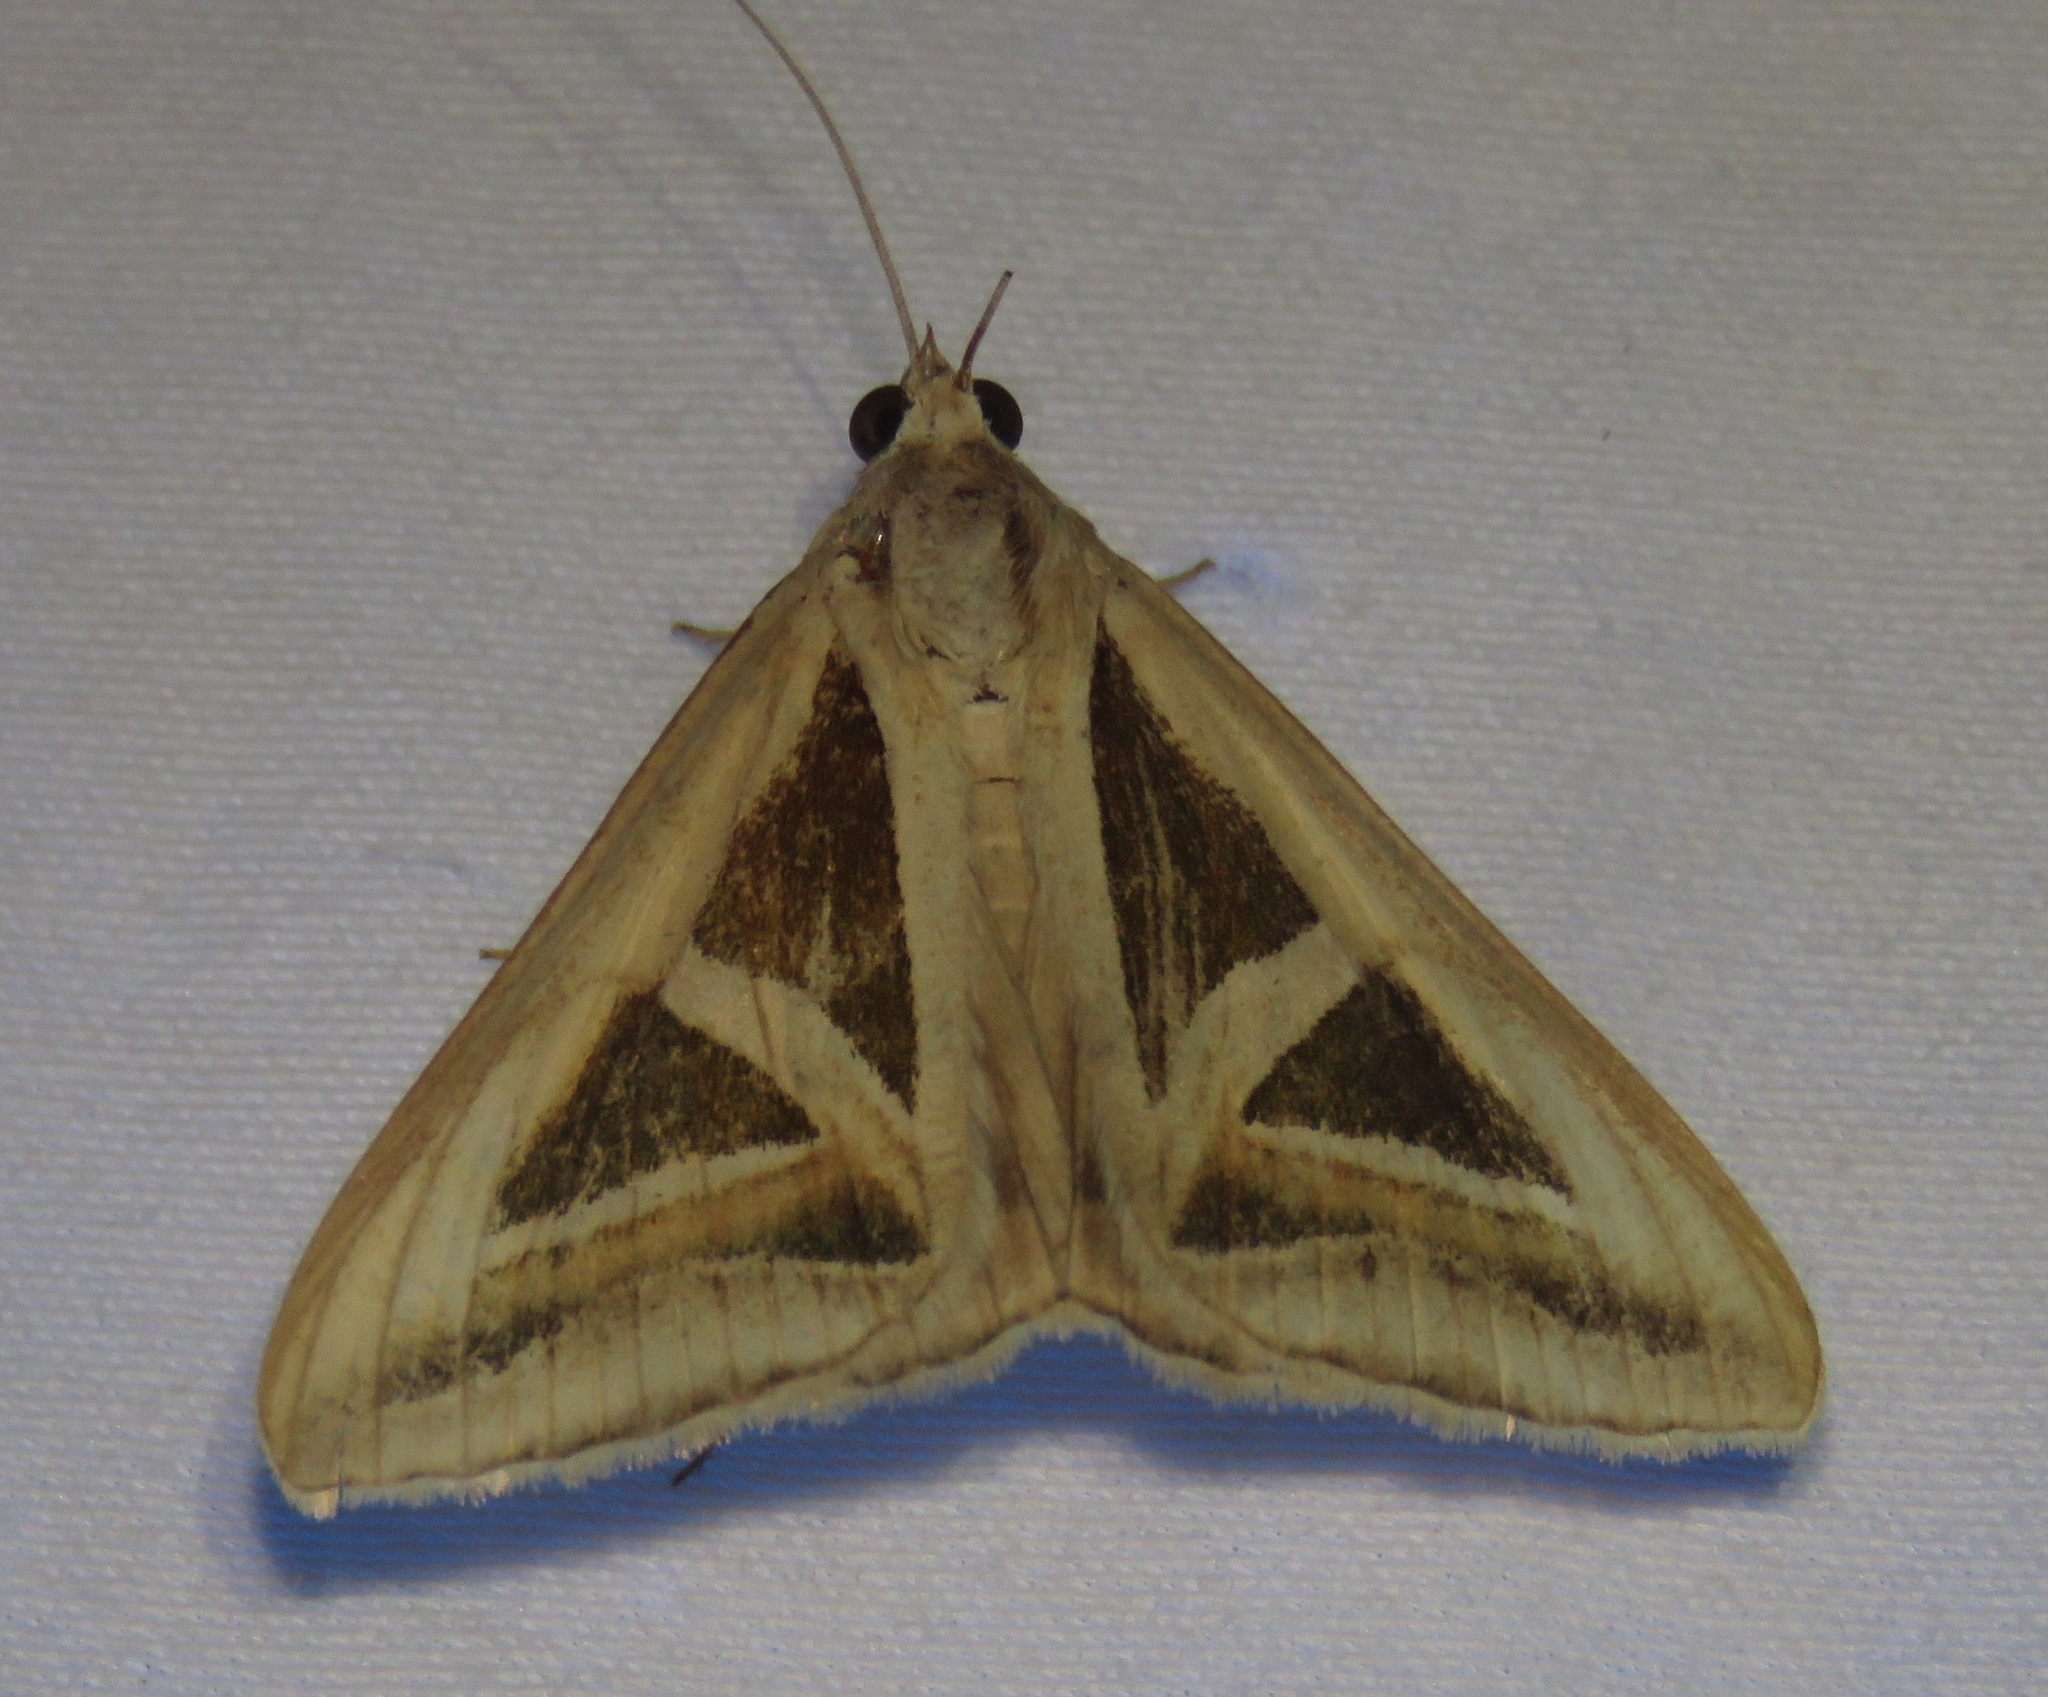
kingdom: Animalia
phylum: Arthropoda
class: Insecta
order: Lepidoptera
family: Erebidae
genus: Trigonodes
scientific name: Trigonodes hyppasia
